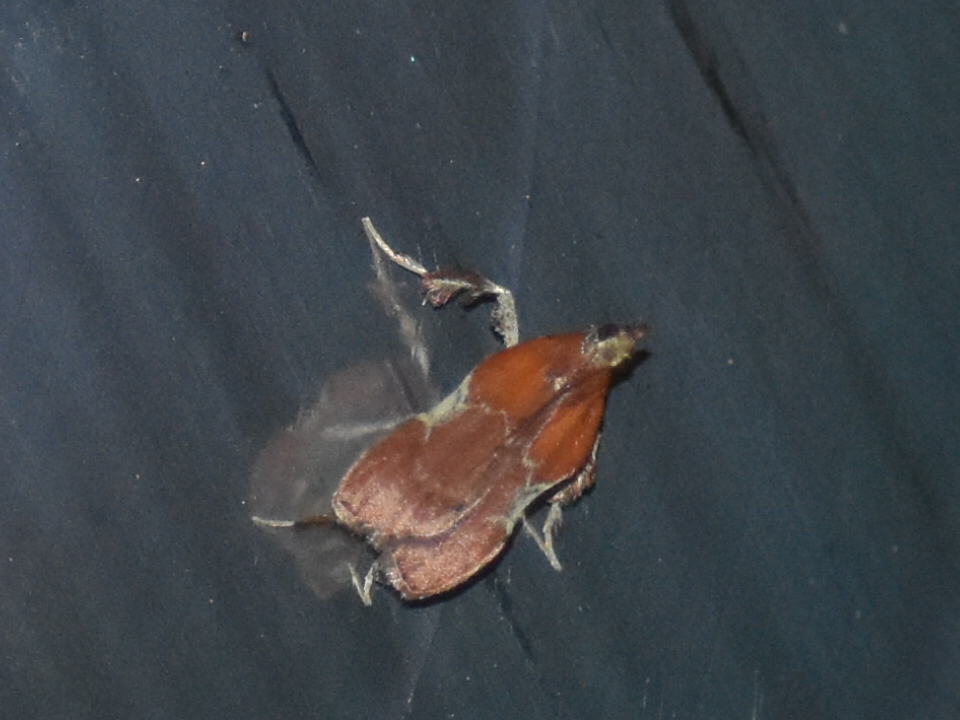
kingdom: Animalia
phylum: Arthropoda
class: Insecta
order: Lepidoptera
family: Pyralidae
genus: Galasa
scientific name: Galasa nigrinodis
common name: Boxwood leaftier moth
